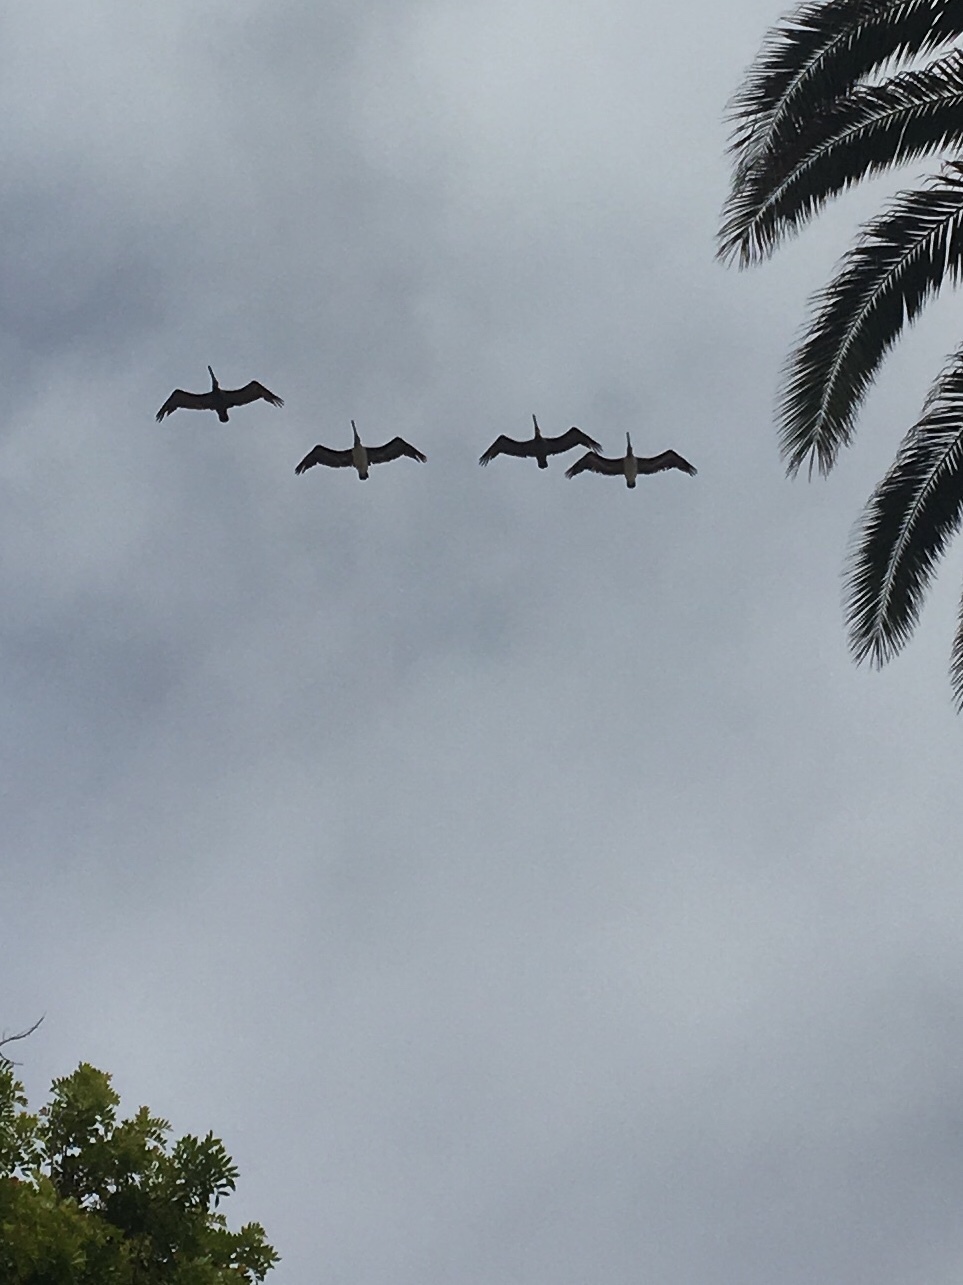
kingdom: Animalia
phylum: Chordata
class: Aves
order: Pelecaniformes
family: Pelecanidae
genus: Pelecanus
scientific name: Pelecanus occidentalis
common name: Brown pelican
